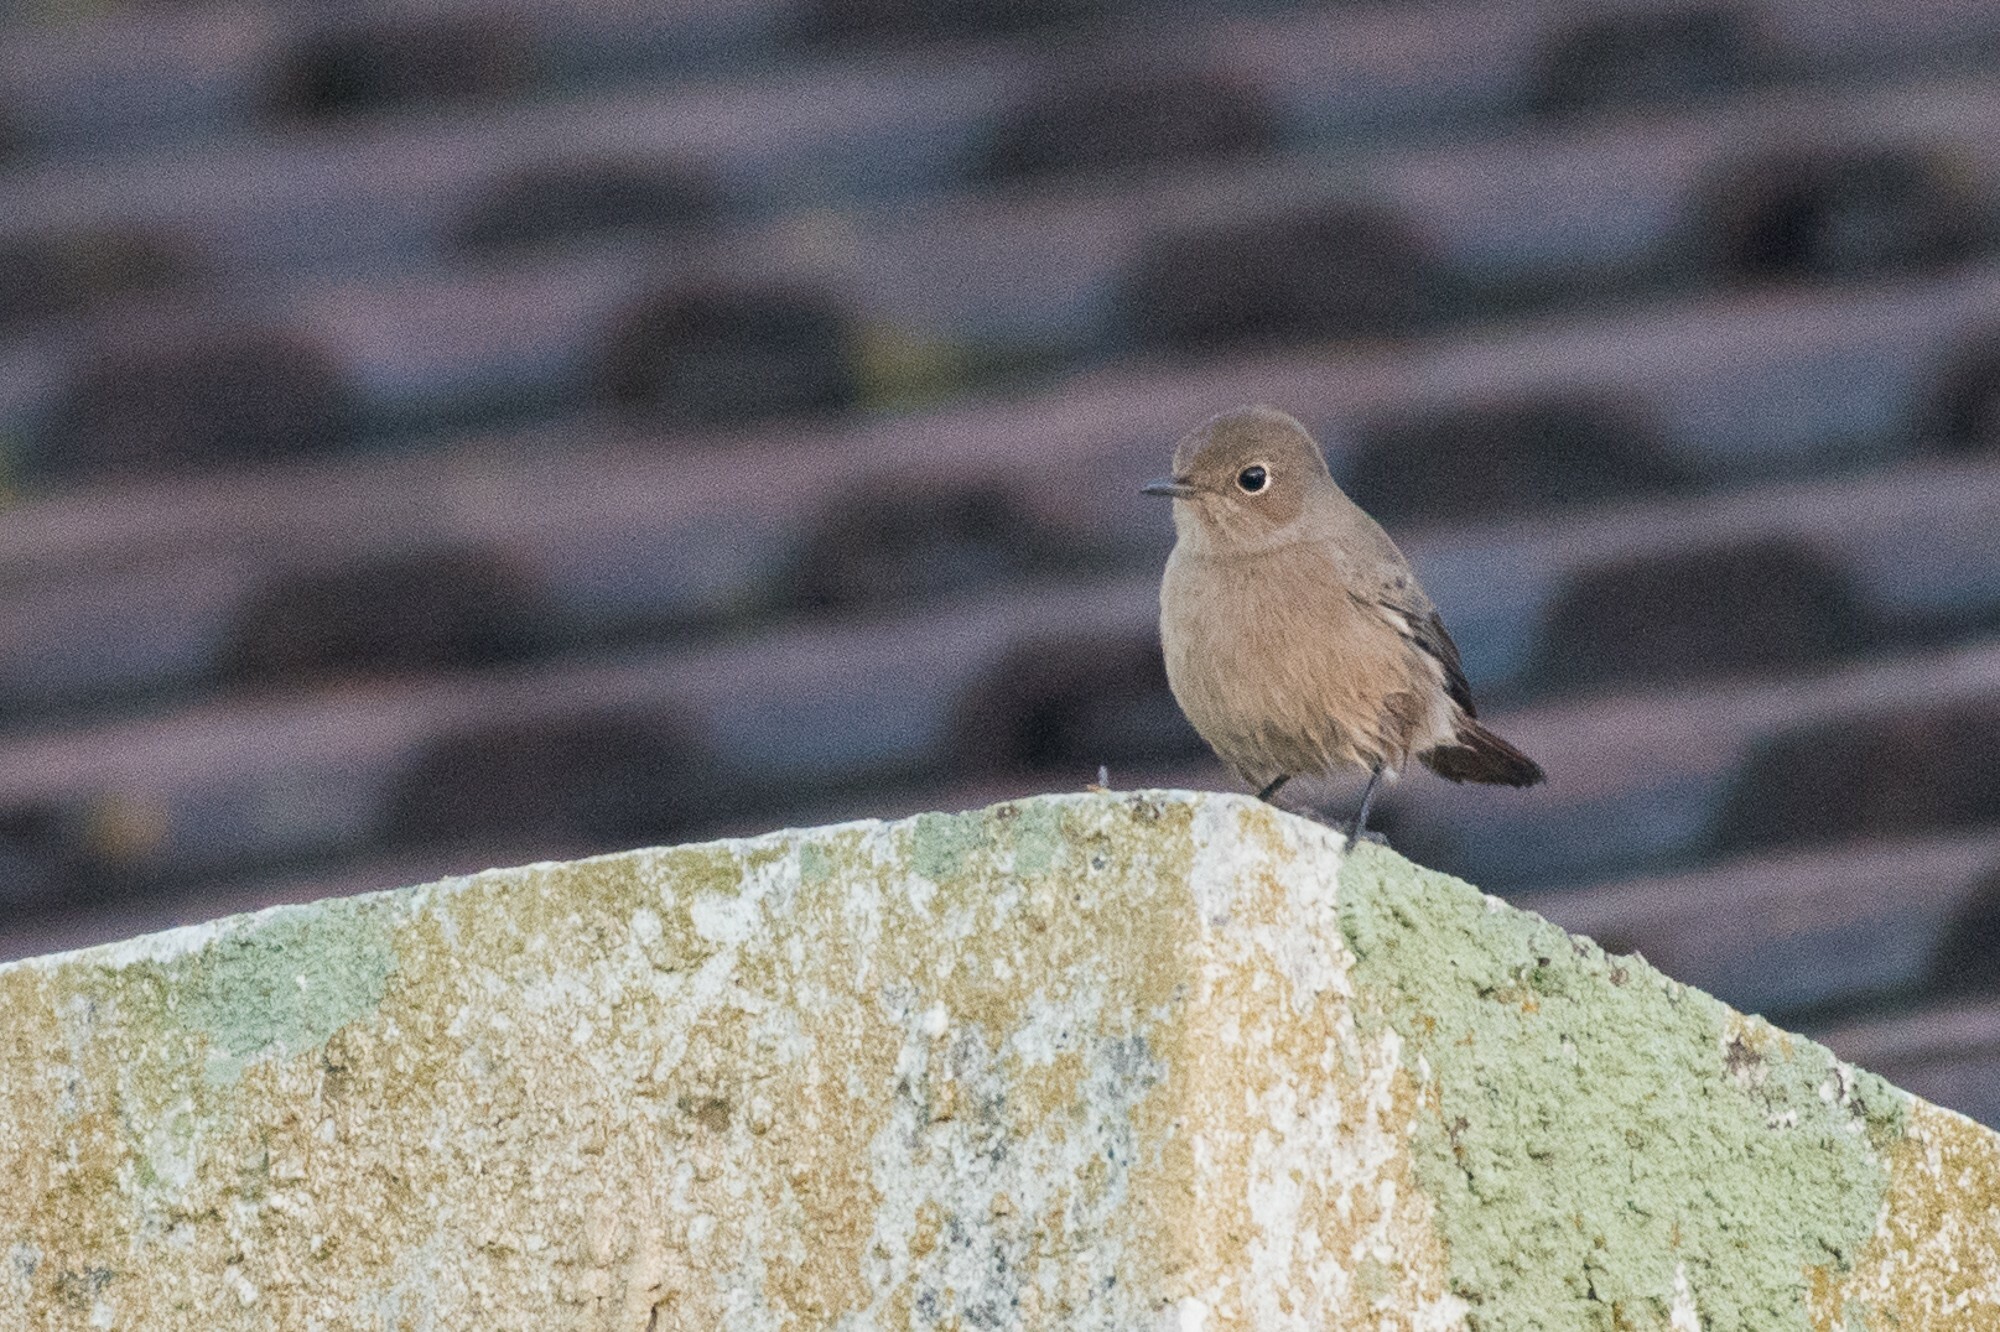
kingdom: Animalia
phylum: Chordata
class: Aves
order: Passeriformes
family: Muscicapidae
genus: Oenanthe
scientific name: Oenanthe familiaris
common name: Familiar chat
